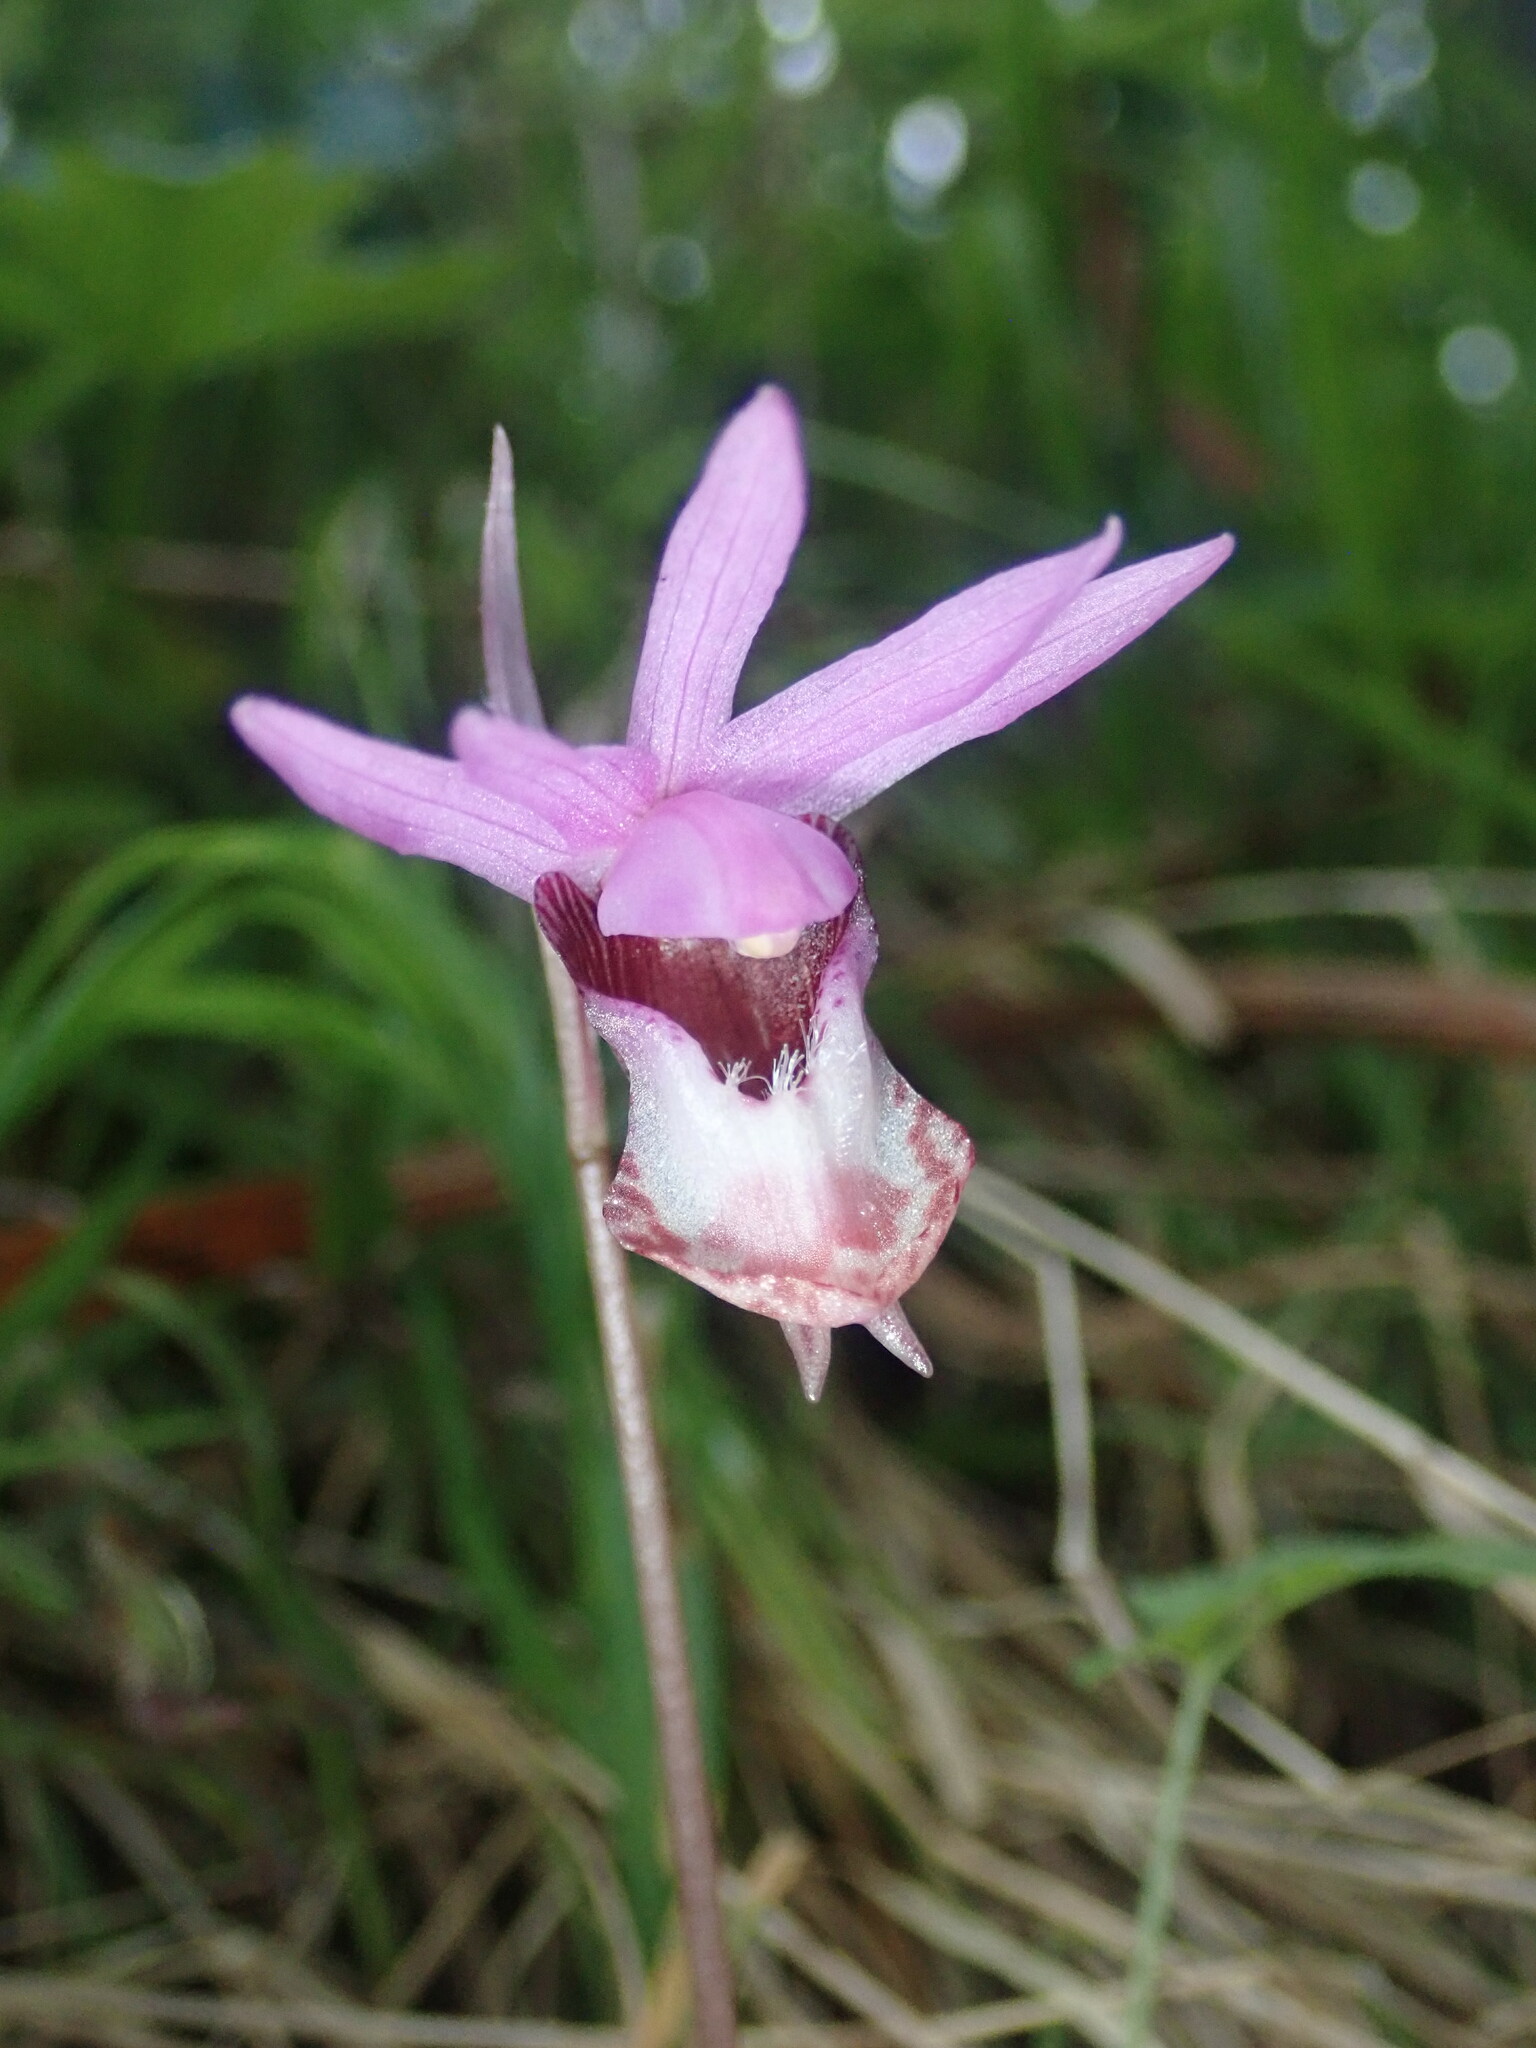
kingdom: Plantae
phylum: Tracheophyta
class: Liliopsida
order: Asparagales
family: Orchidaceae
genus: Calypso
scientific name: Calypso bulbosa
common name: Calypso
